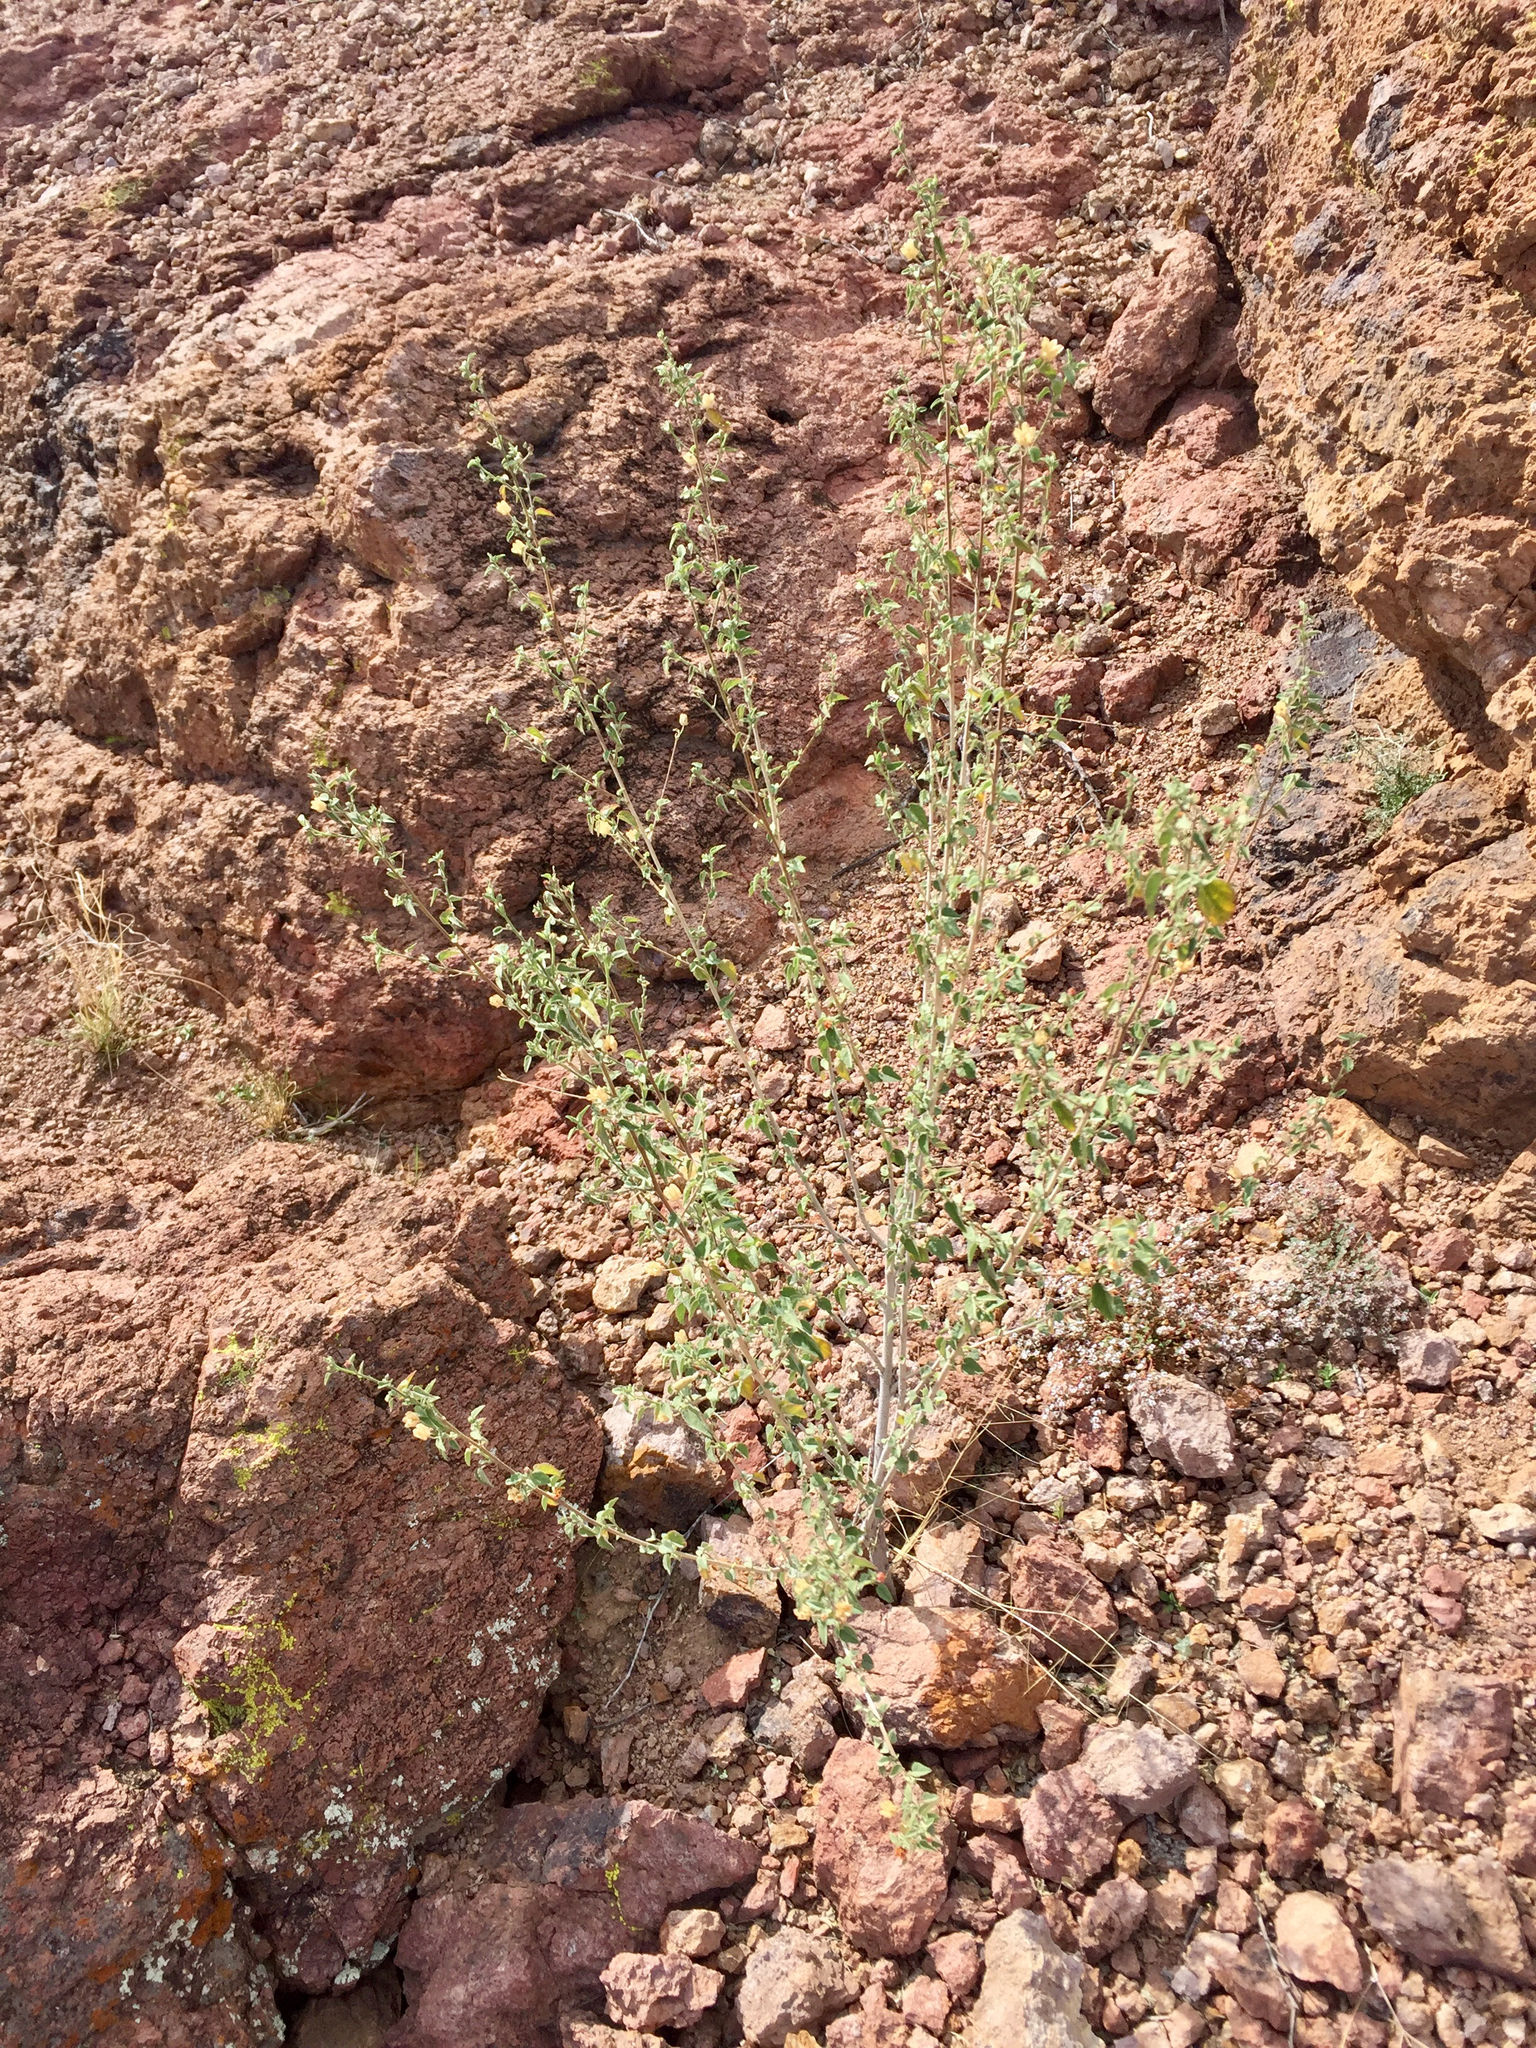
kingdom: Plantae
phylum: Tracheophyta
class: Magnoliopsida
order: Malvales
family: Malvaceae
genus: Abutilon
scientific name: Abutilon incanum
